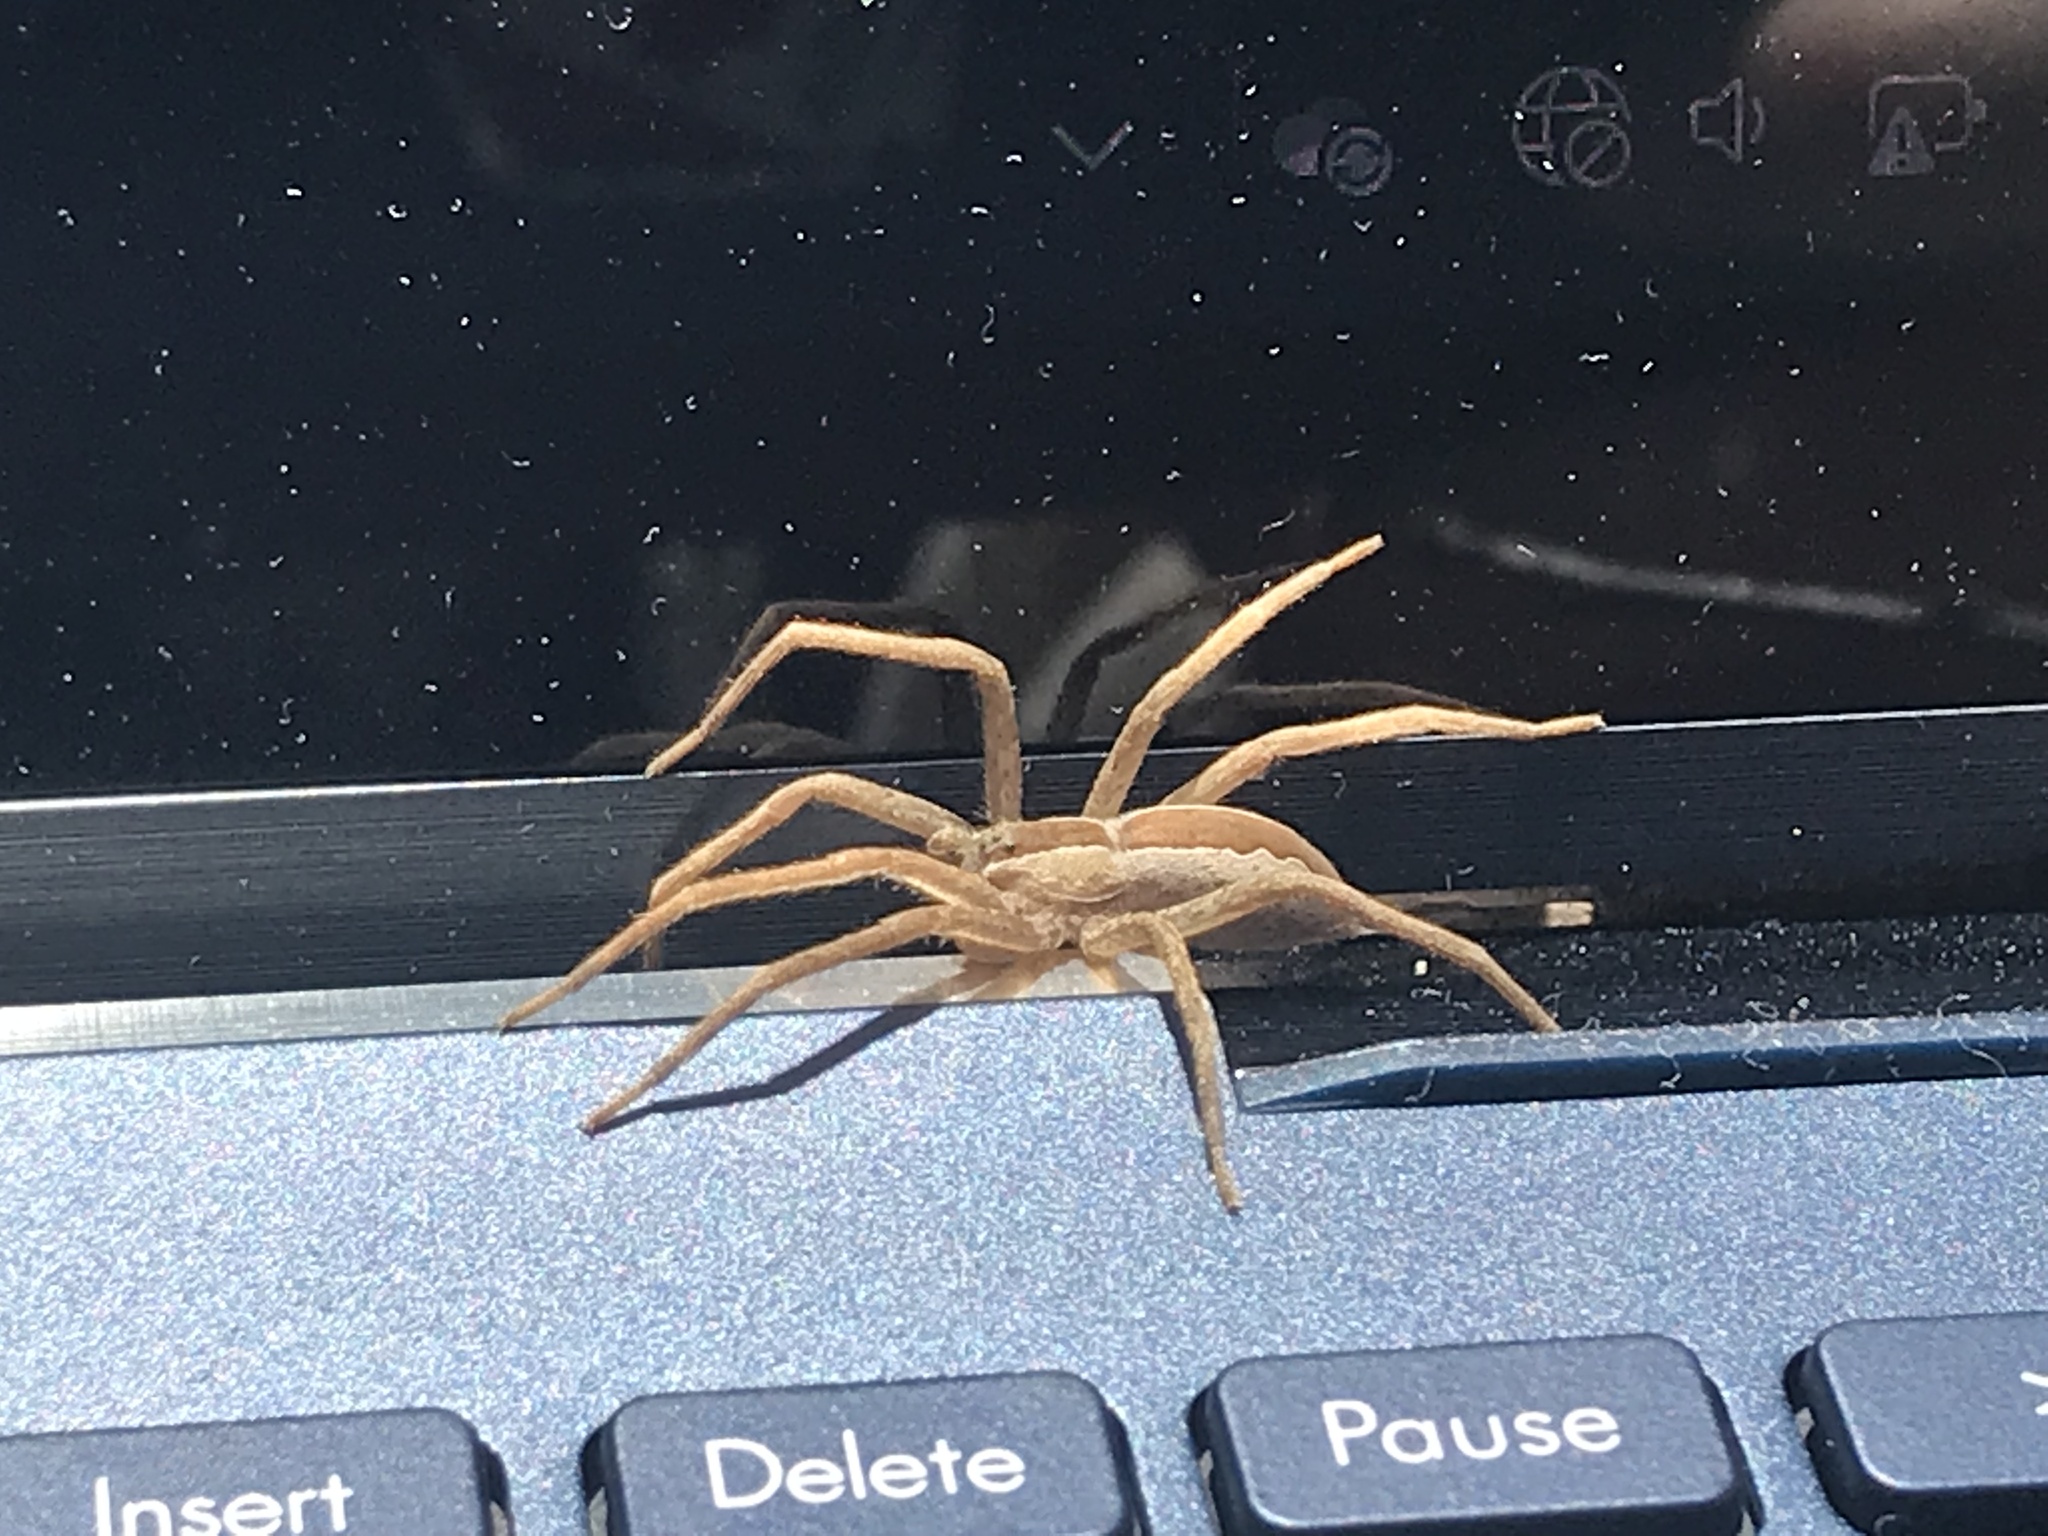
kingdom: Animalia
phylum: Arthropoda
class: Arachnida
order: Araneae
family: Pisauridae
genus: Pisaurina
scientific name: Pisaurina mira
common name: American nursery web spider
